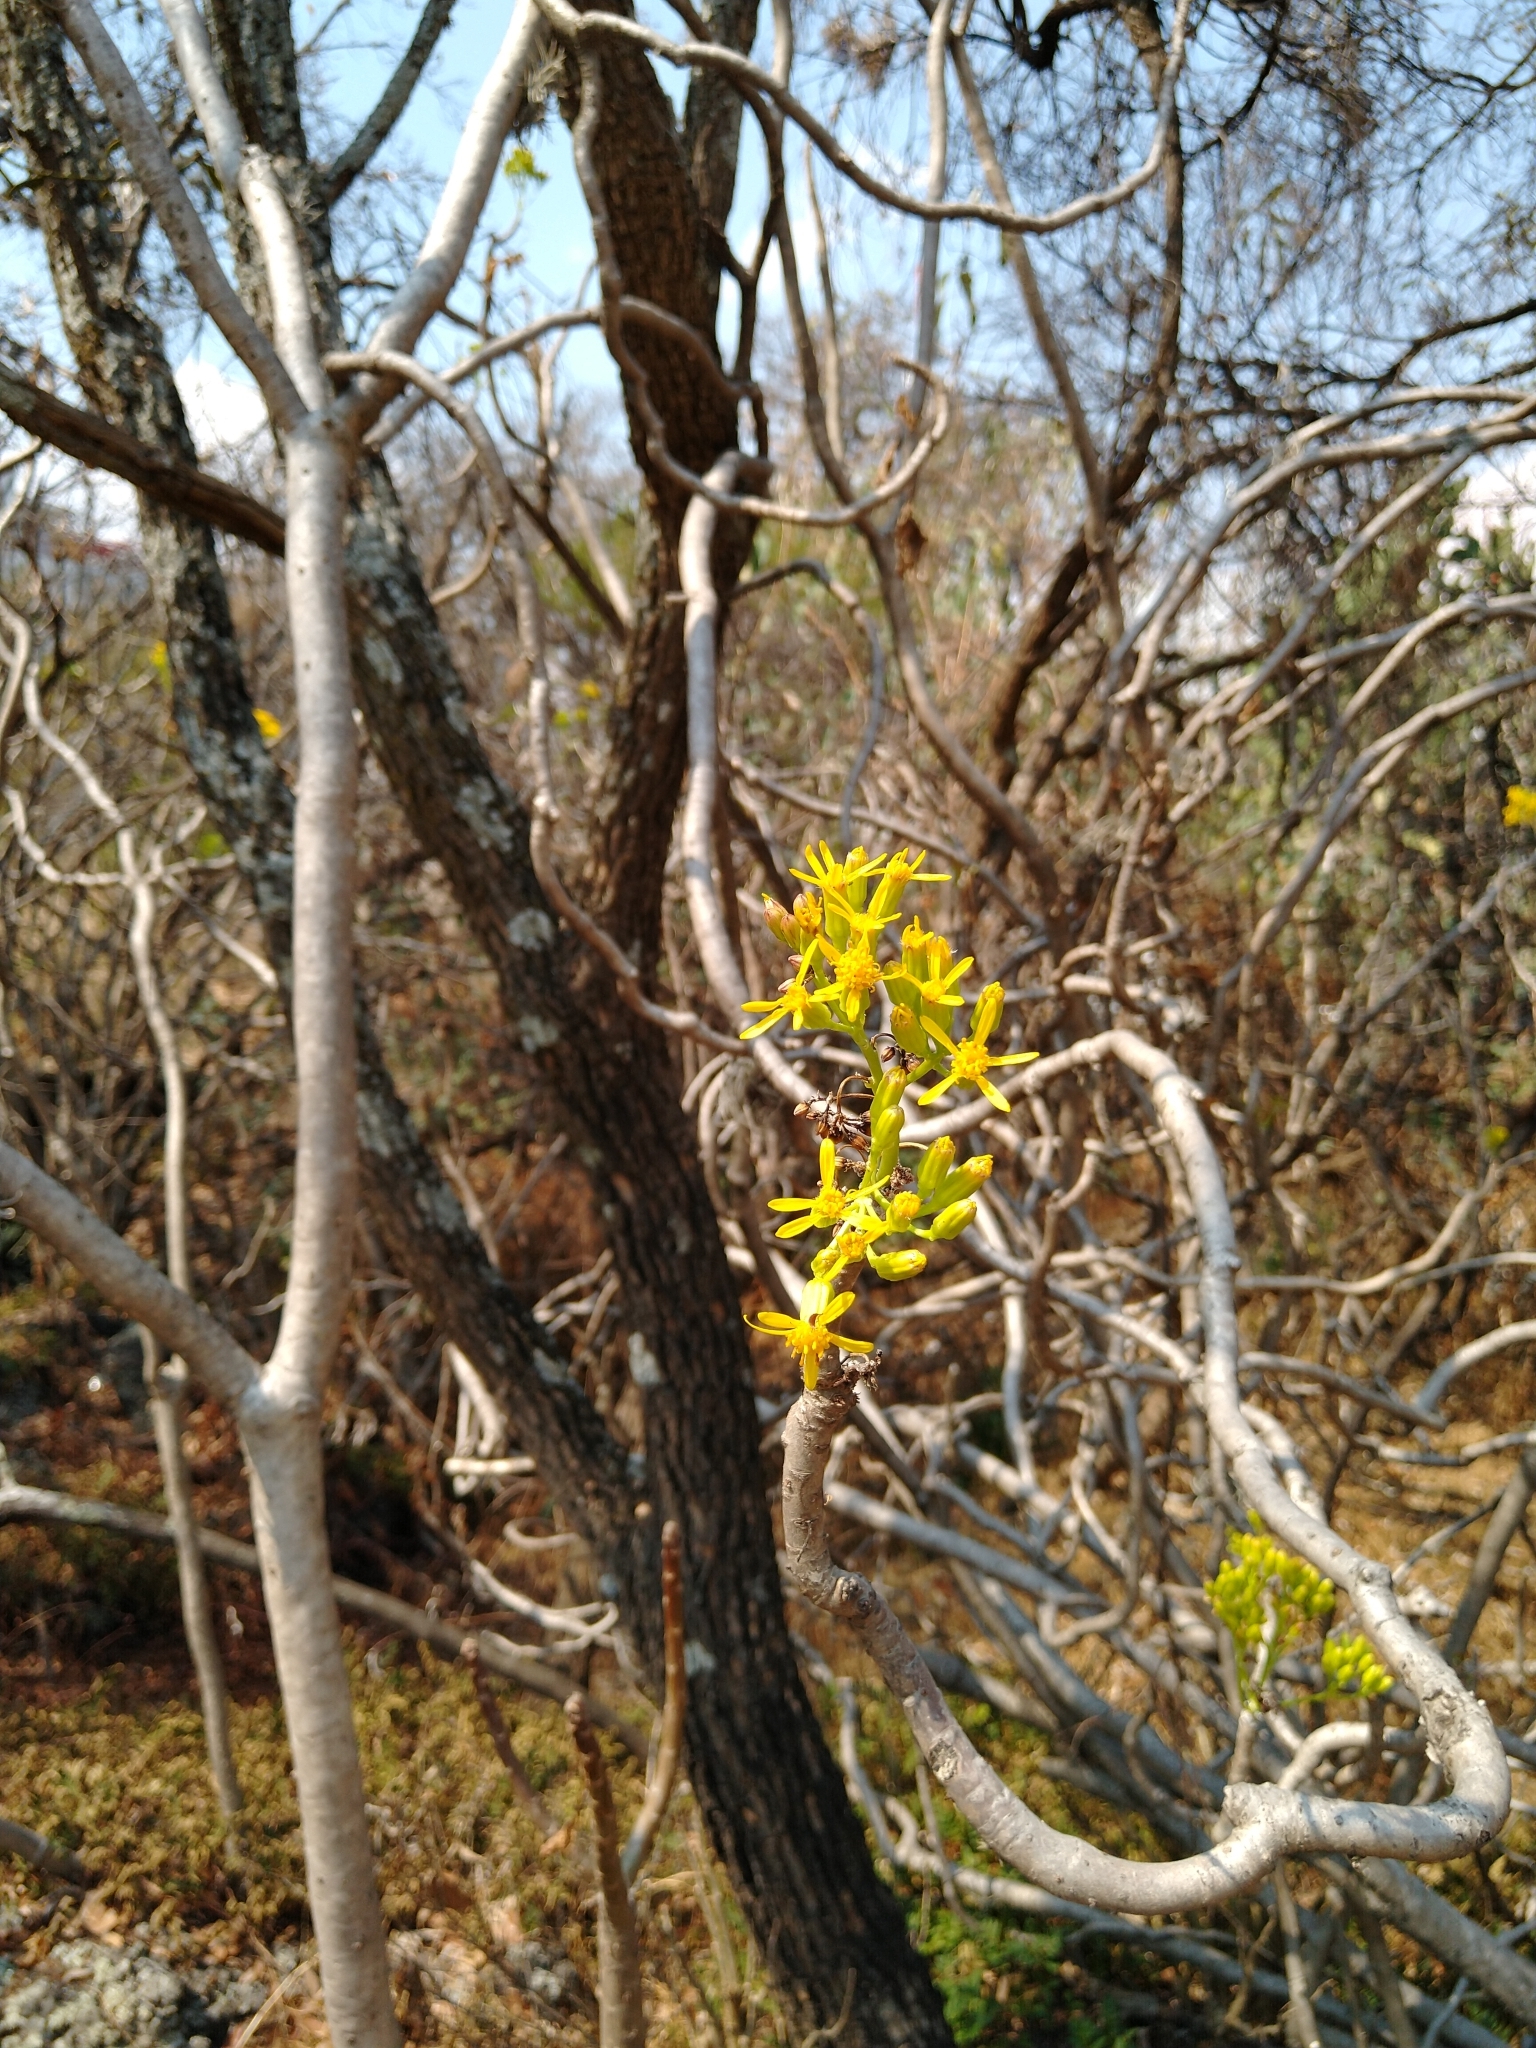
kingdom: Plantae
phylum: Tracheophyta
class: Magnoliopsida
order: Asterales
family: Asteraceae
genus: Pittocaulon
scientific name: Pittocaulon praecox
